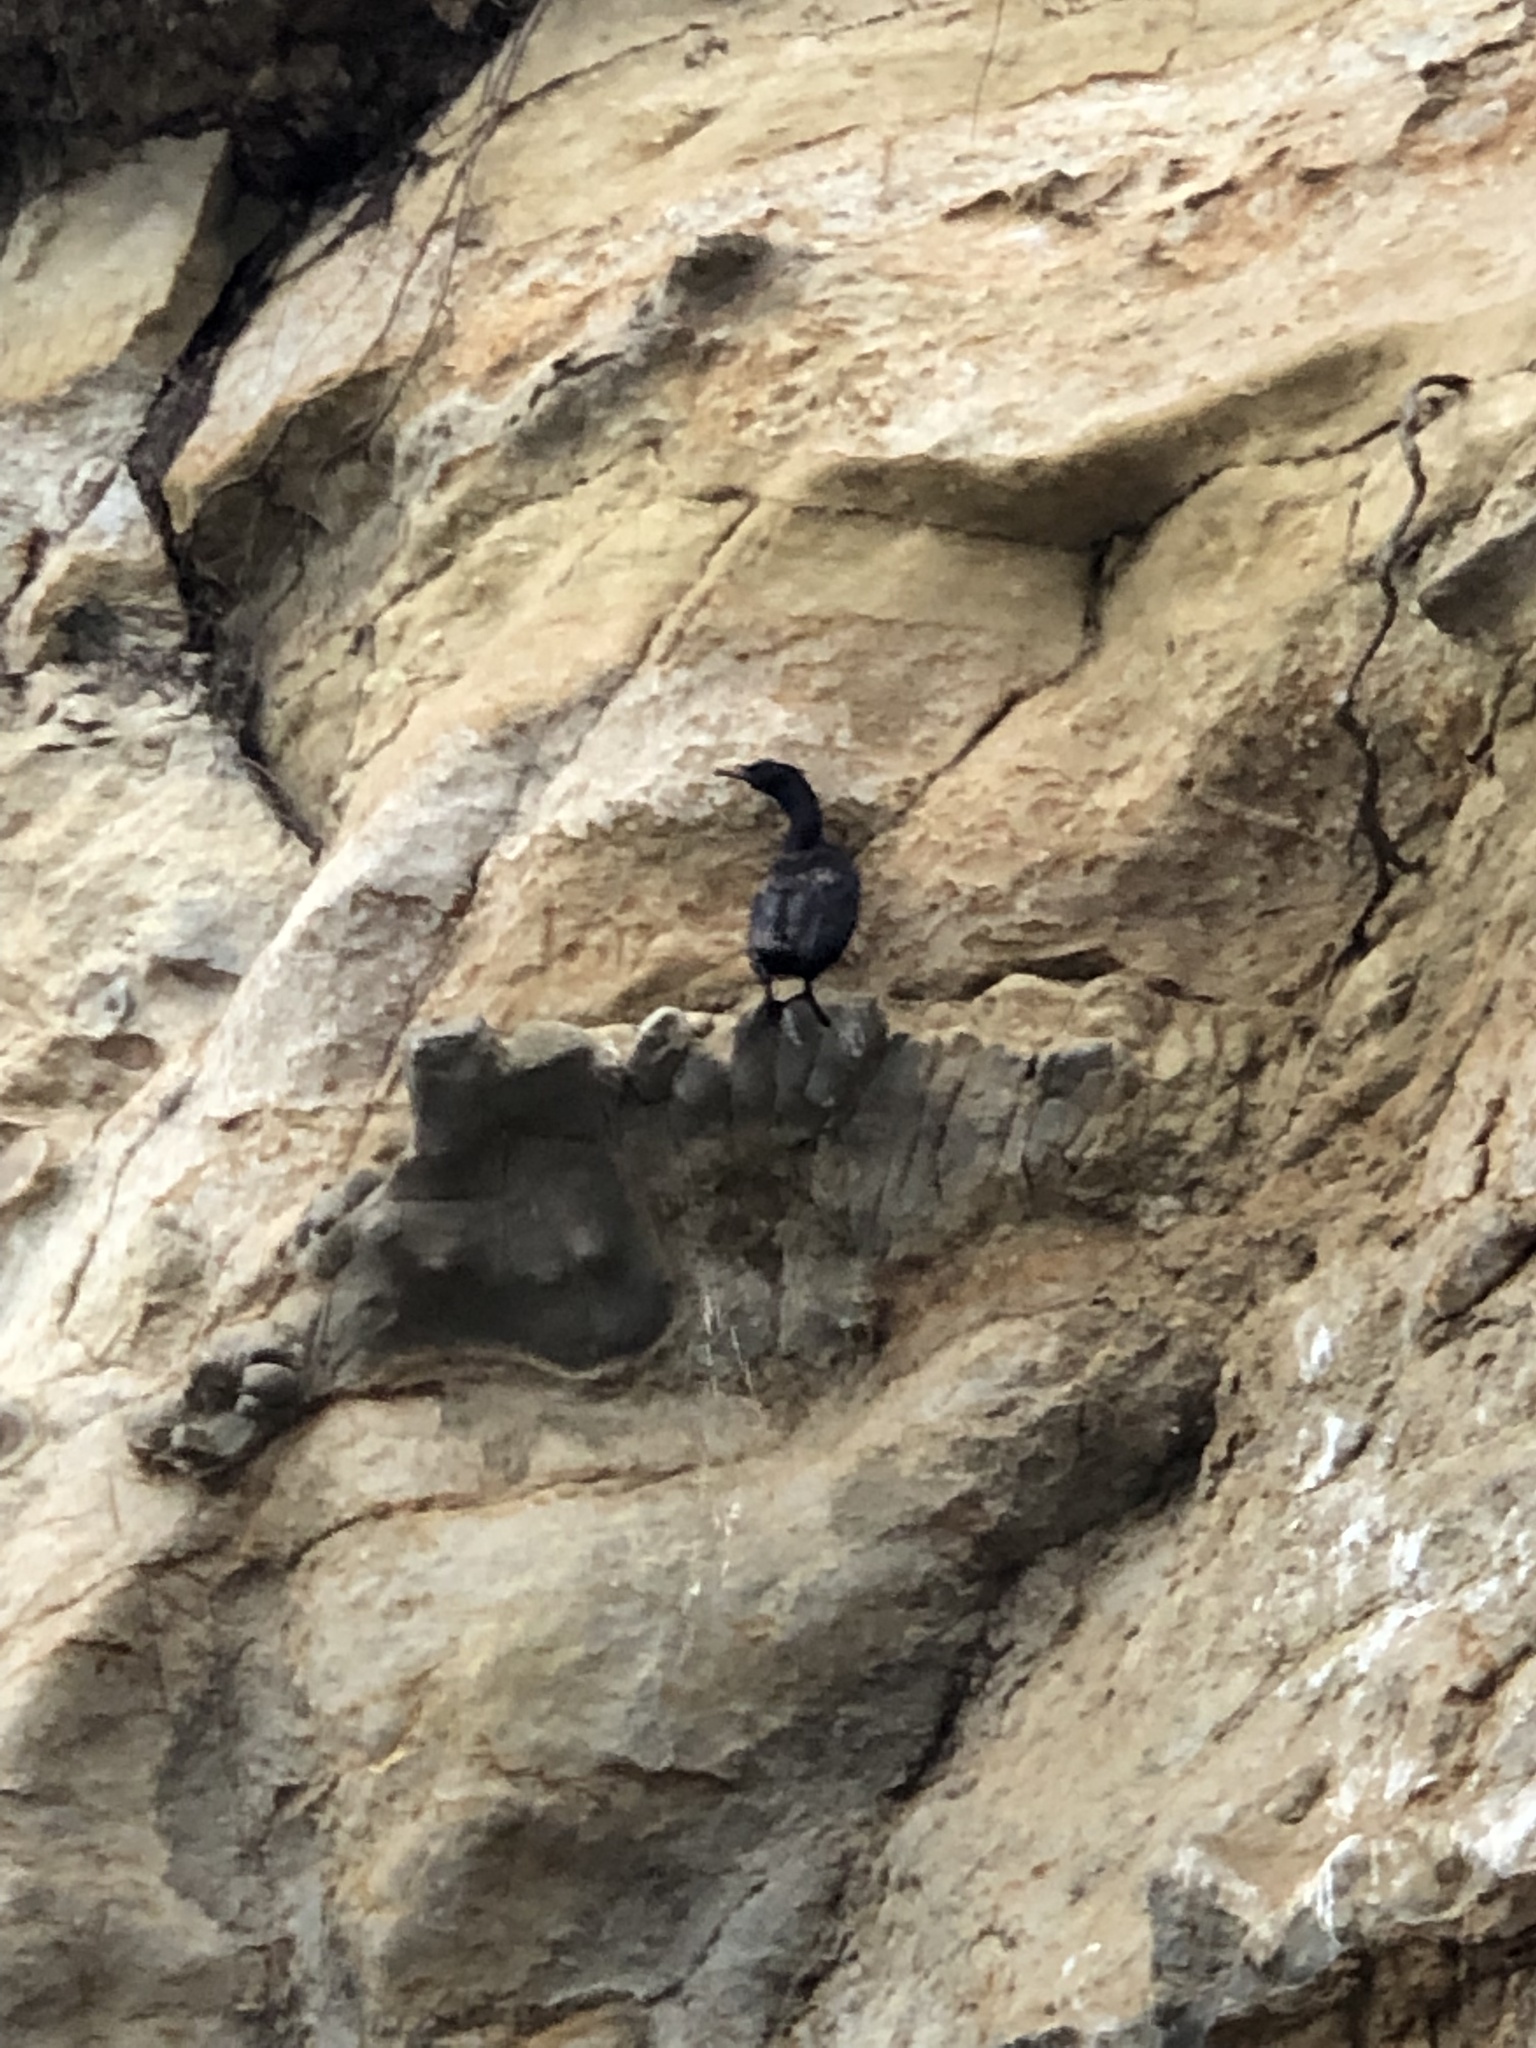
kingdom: Animalia
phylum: Chordata
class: Aves
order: Suliformes
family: Phalacrocoracidae
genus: Phalacrocorax
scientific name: Phalacrocorax pelagicus
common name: Pelagic cormorant
